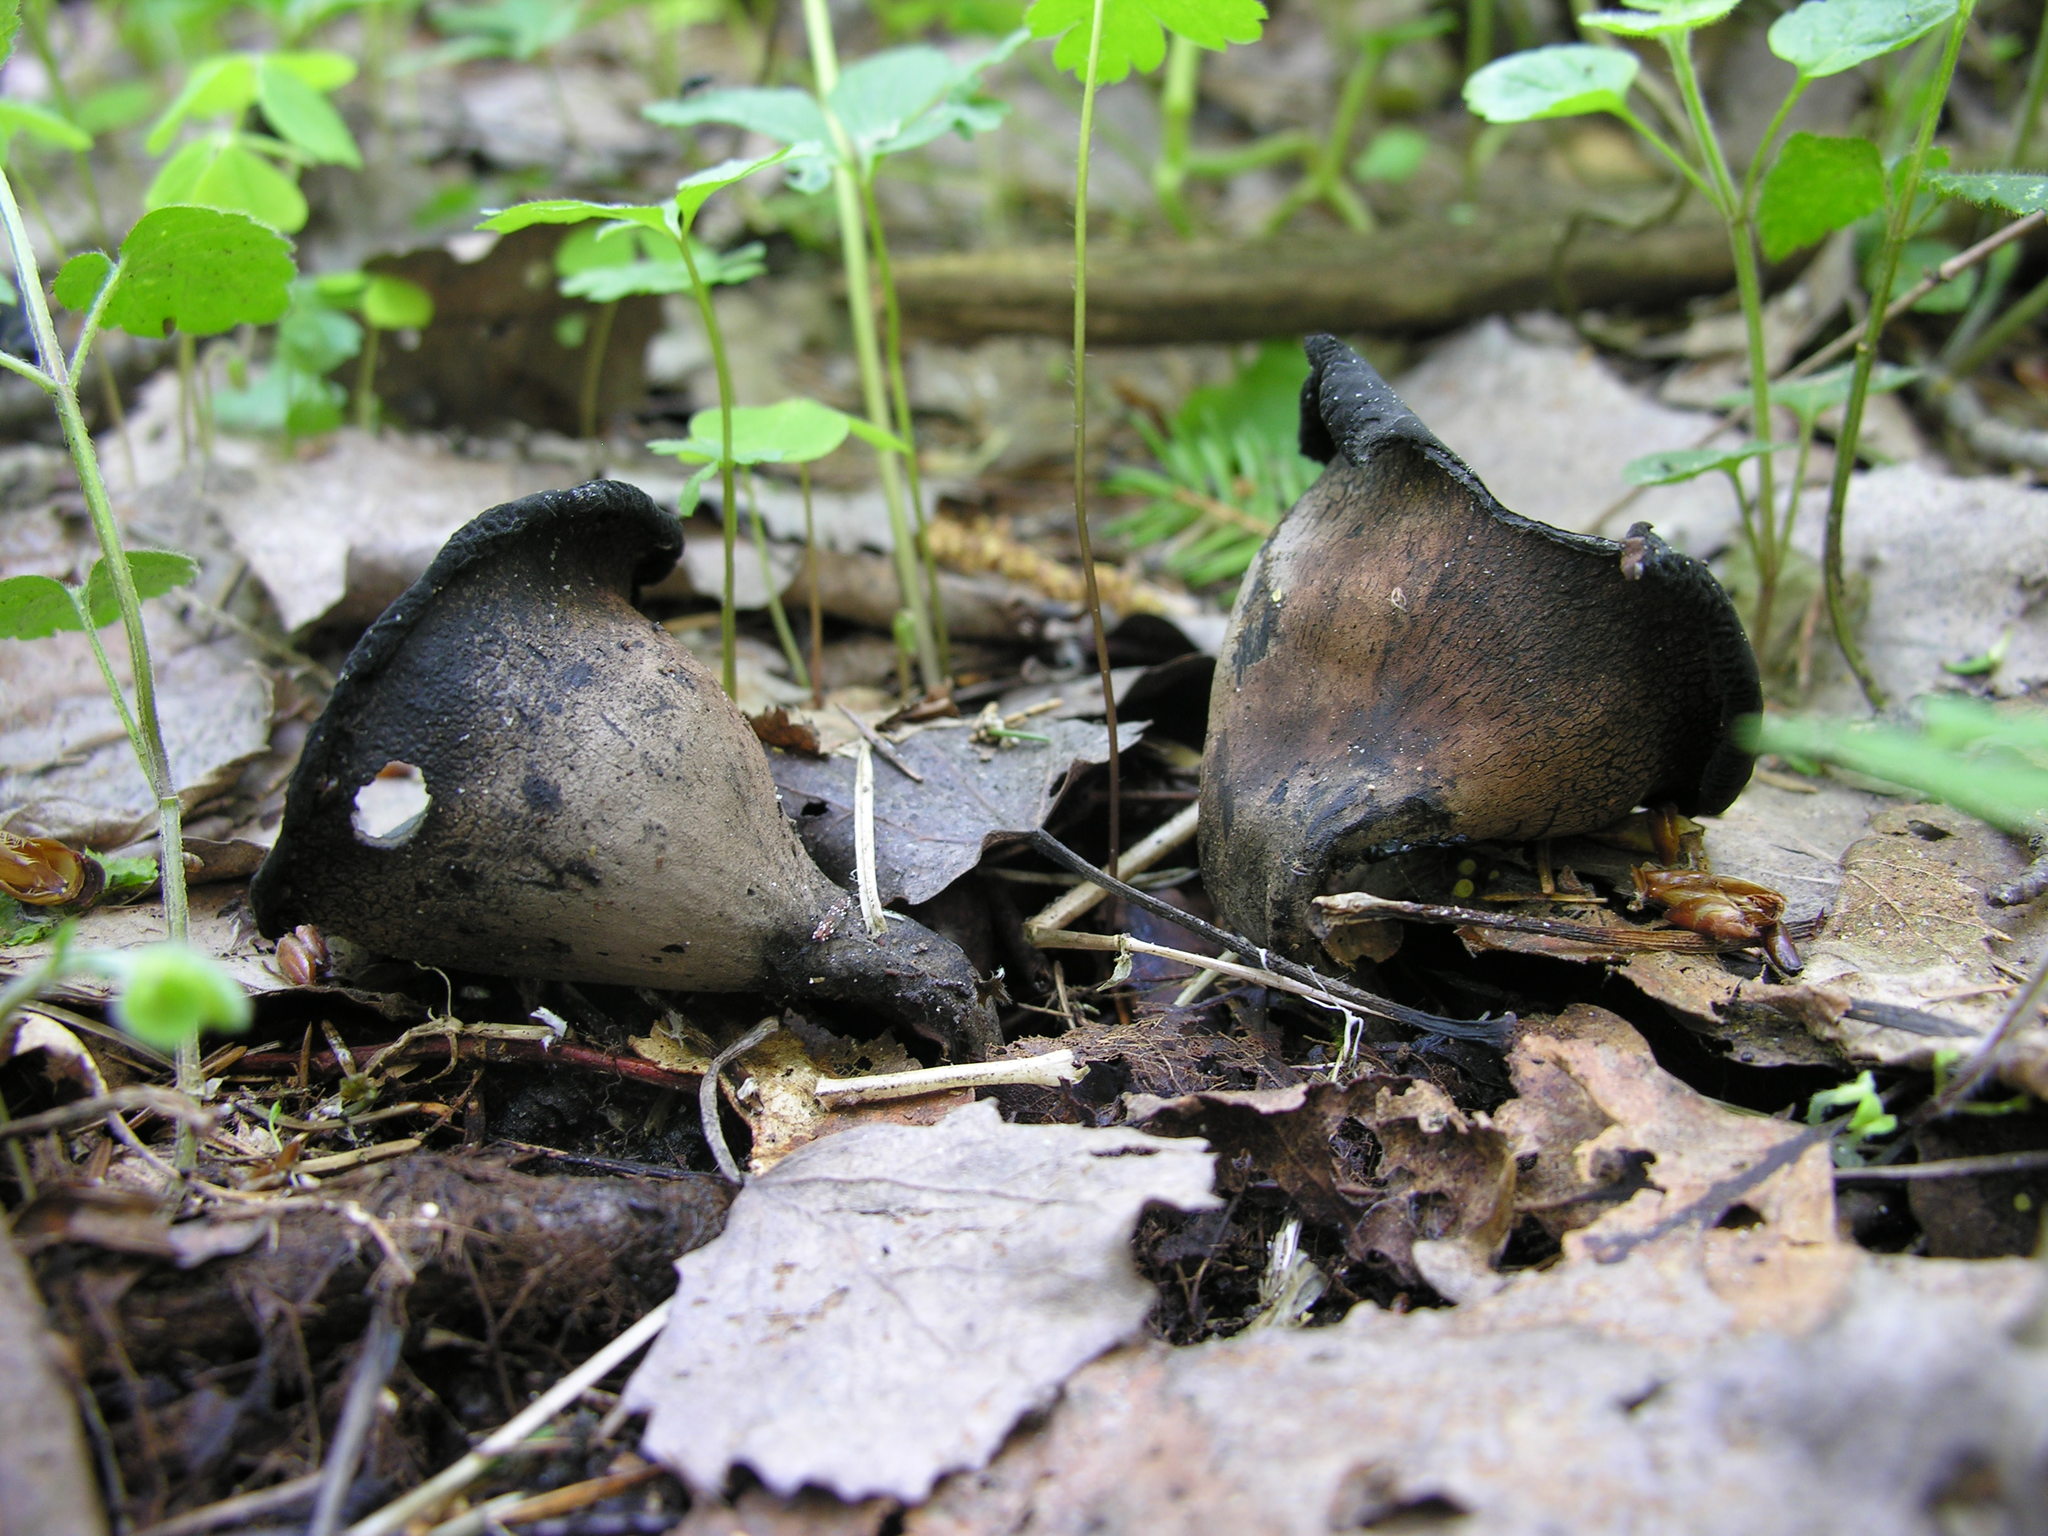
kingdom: Fungi
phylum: Ascomycota
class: Pezizomycetes
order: Pezizales
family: Sarcosomataceae
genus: Urnula
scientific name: Urnula craterium
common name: Devil's urn
